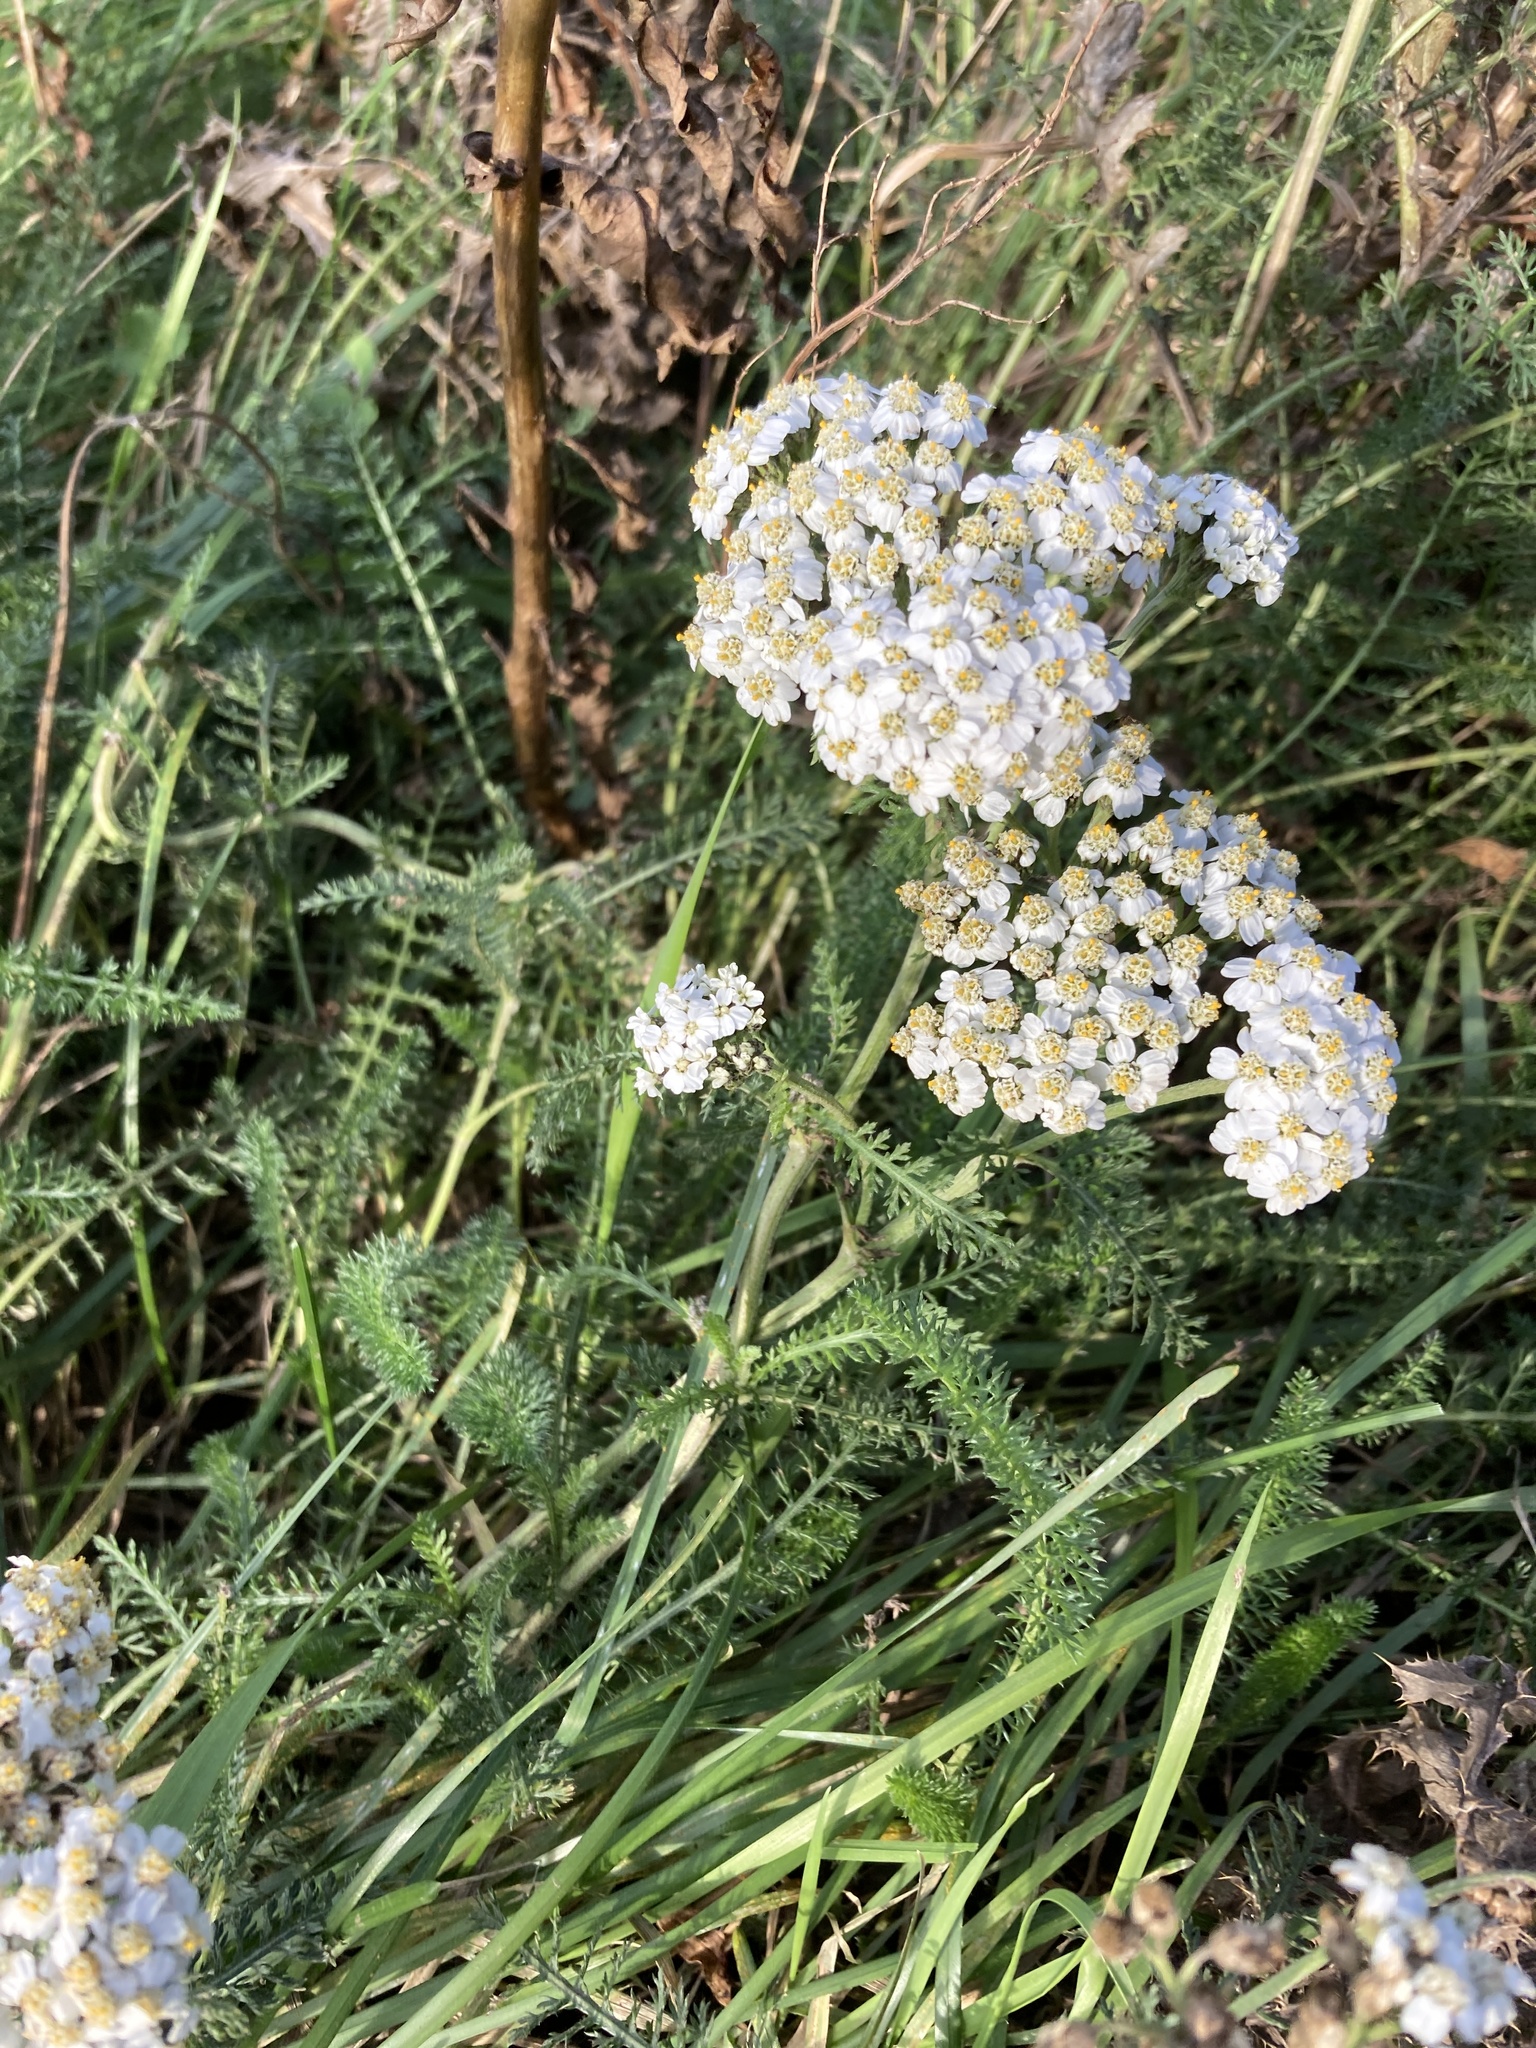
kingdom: Plantae
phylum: Tracheophyta
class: Magnoliopsida
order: Asterales
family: Asteraceae
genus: Achillea
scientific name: Achillea millefolium
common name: Yarrow
